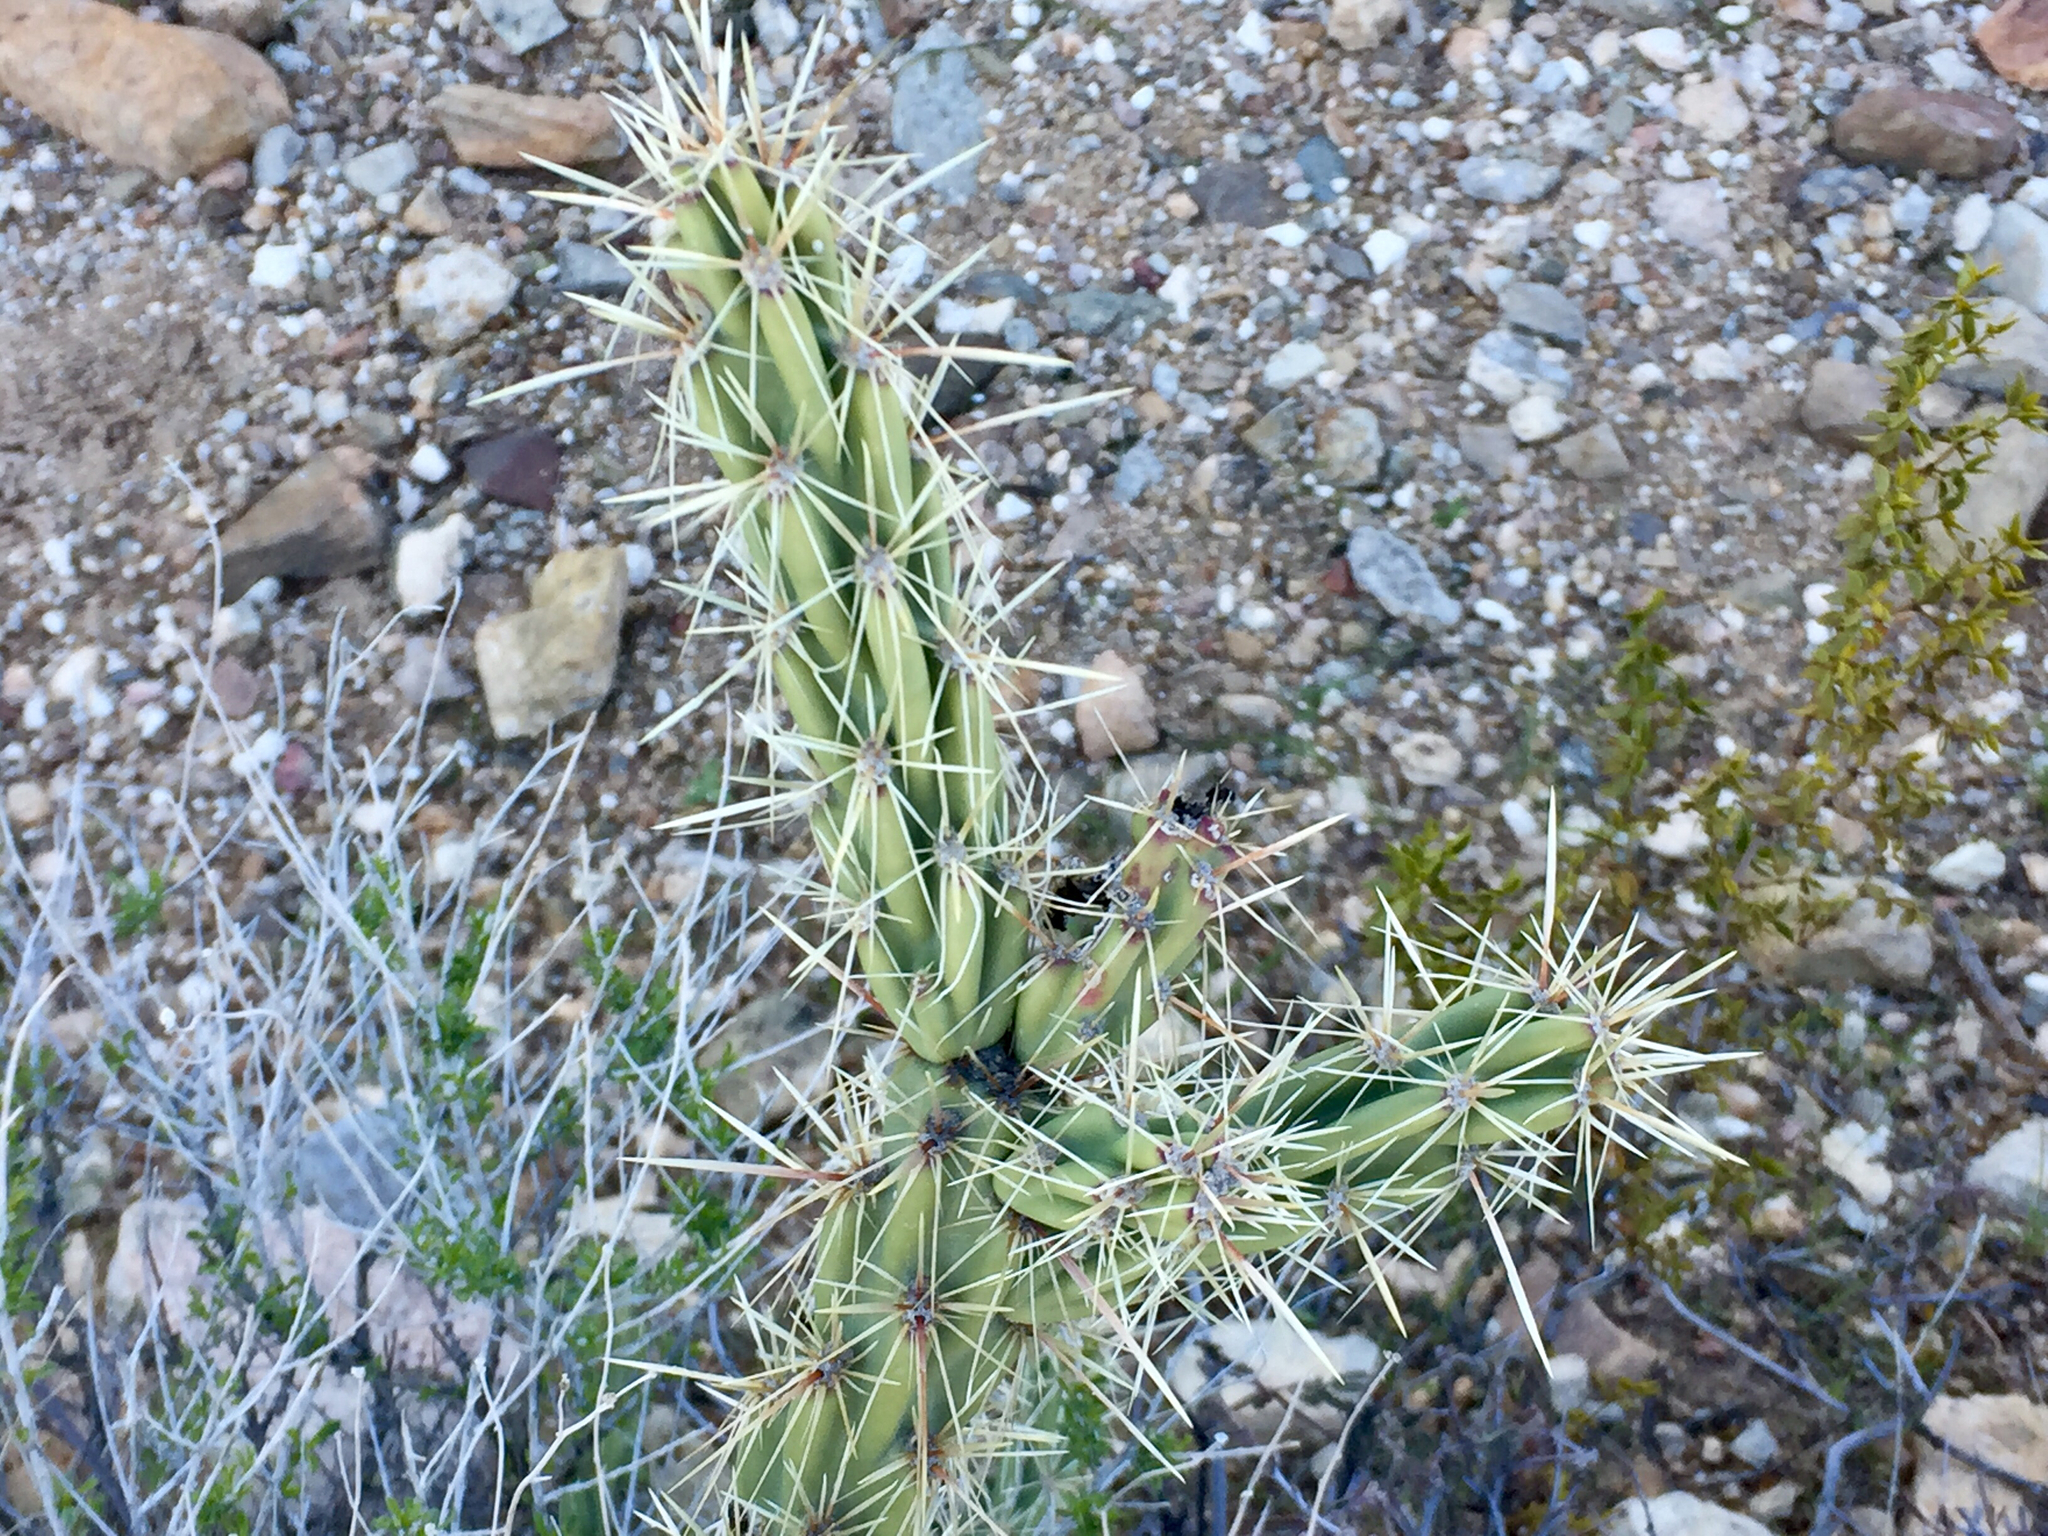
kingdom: Plantae
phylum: Tracheophyta
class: Magnoliopsida
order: Caryophyllales
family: Cactaceae
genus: Cylindropuntia
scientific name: Cylindropuntia acanthocarpa
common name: Buckhorn cholla
